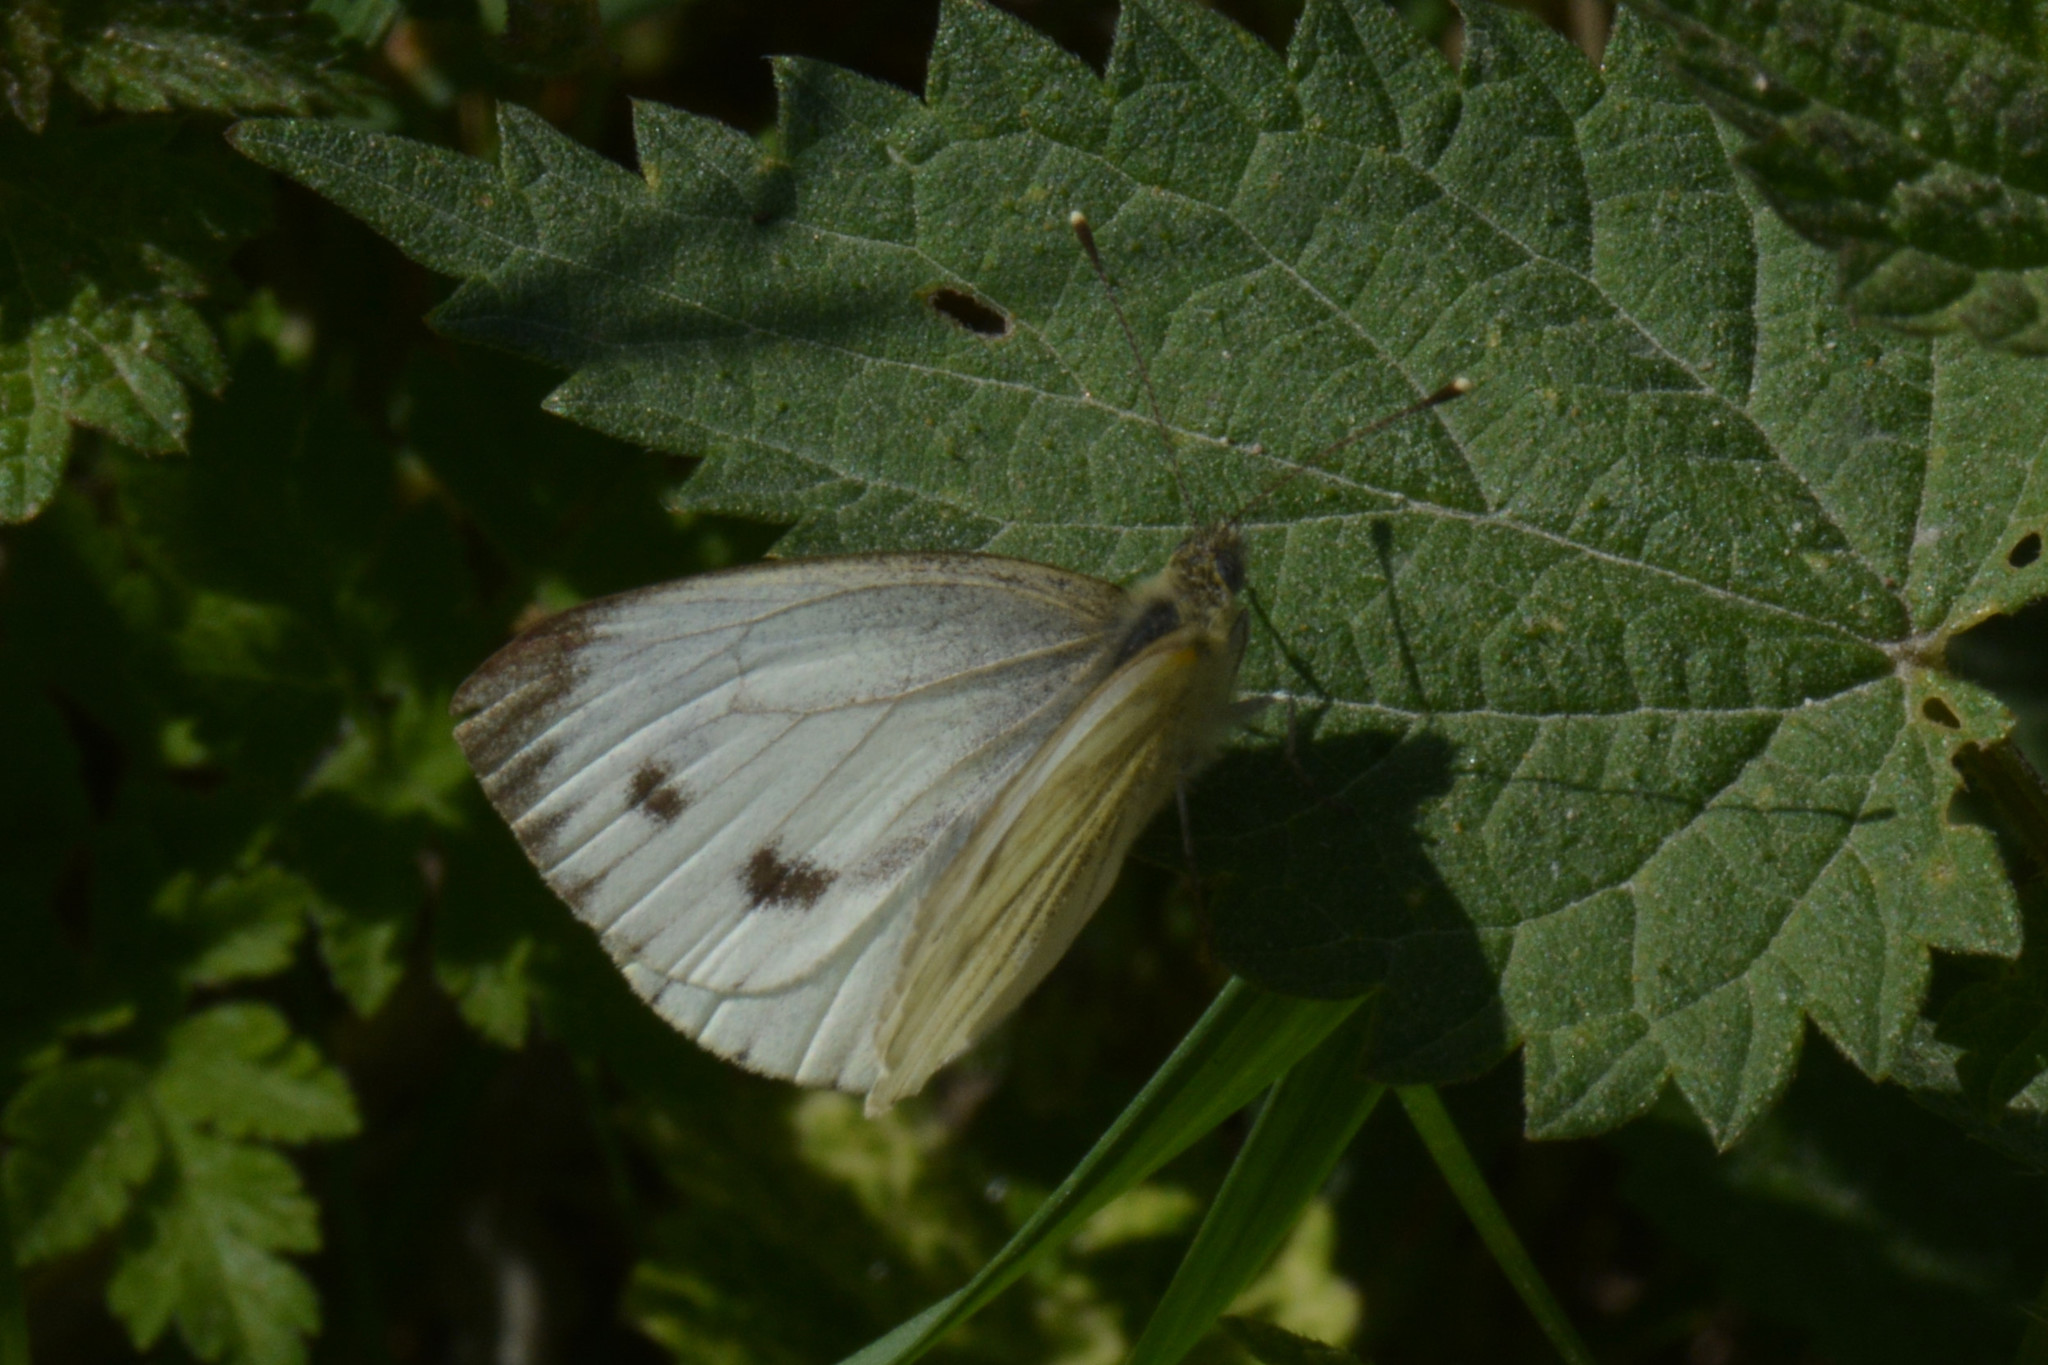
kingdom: Animalia
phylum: Arthropoda
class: Insecta
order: Lepidoptera
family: Pieridae
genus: Pieris
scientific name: Pieris napi
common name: Green-veined white
